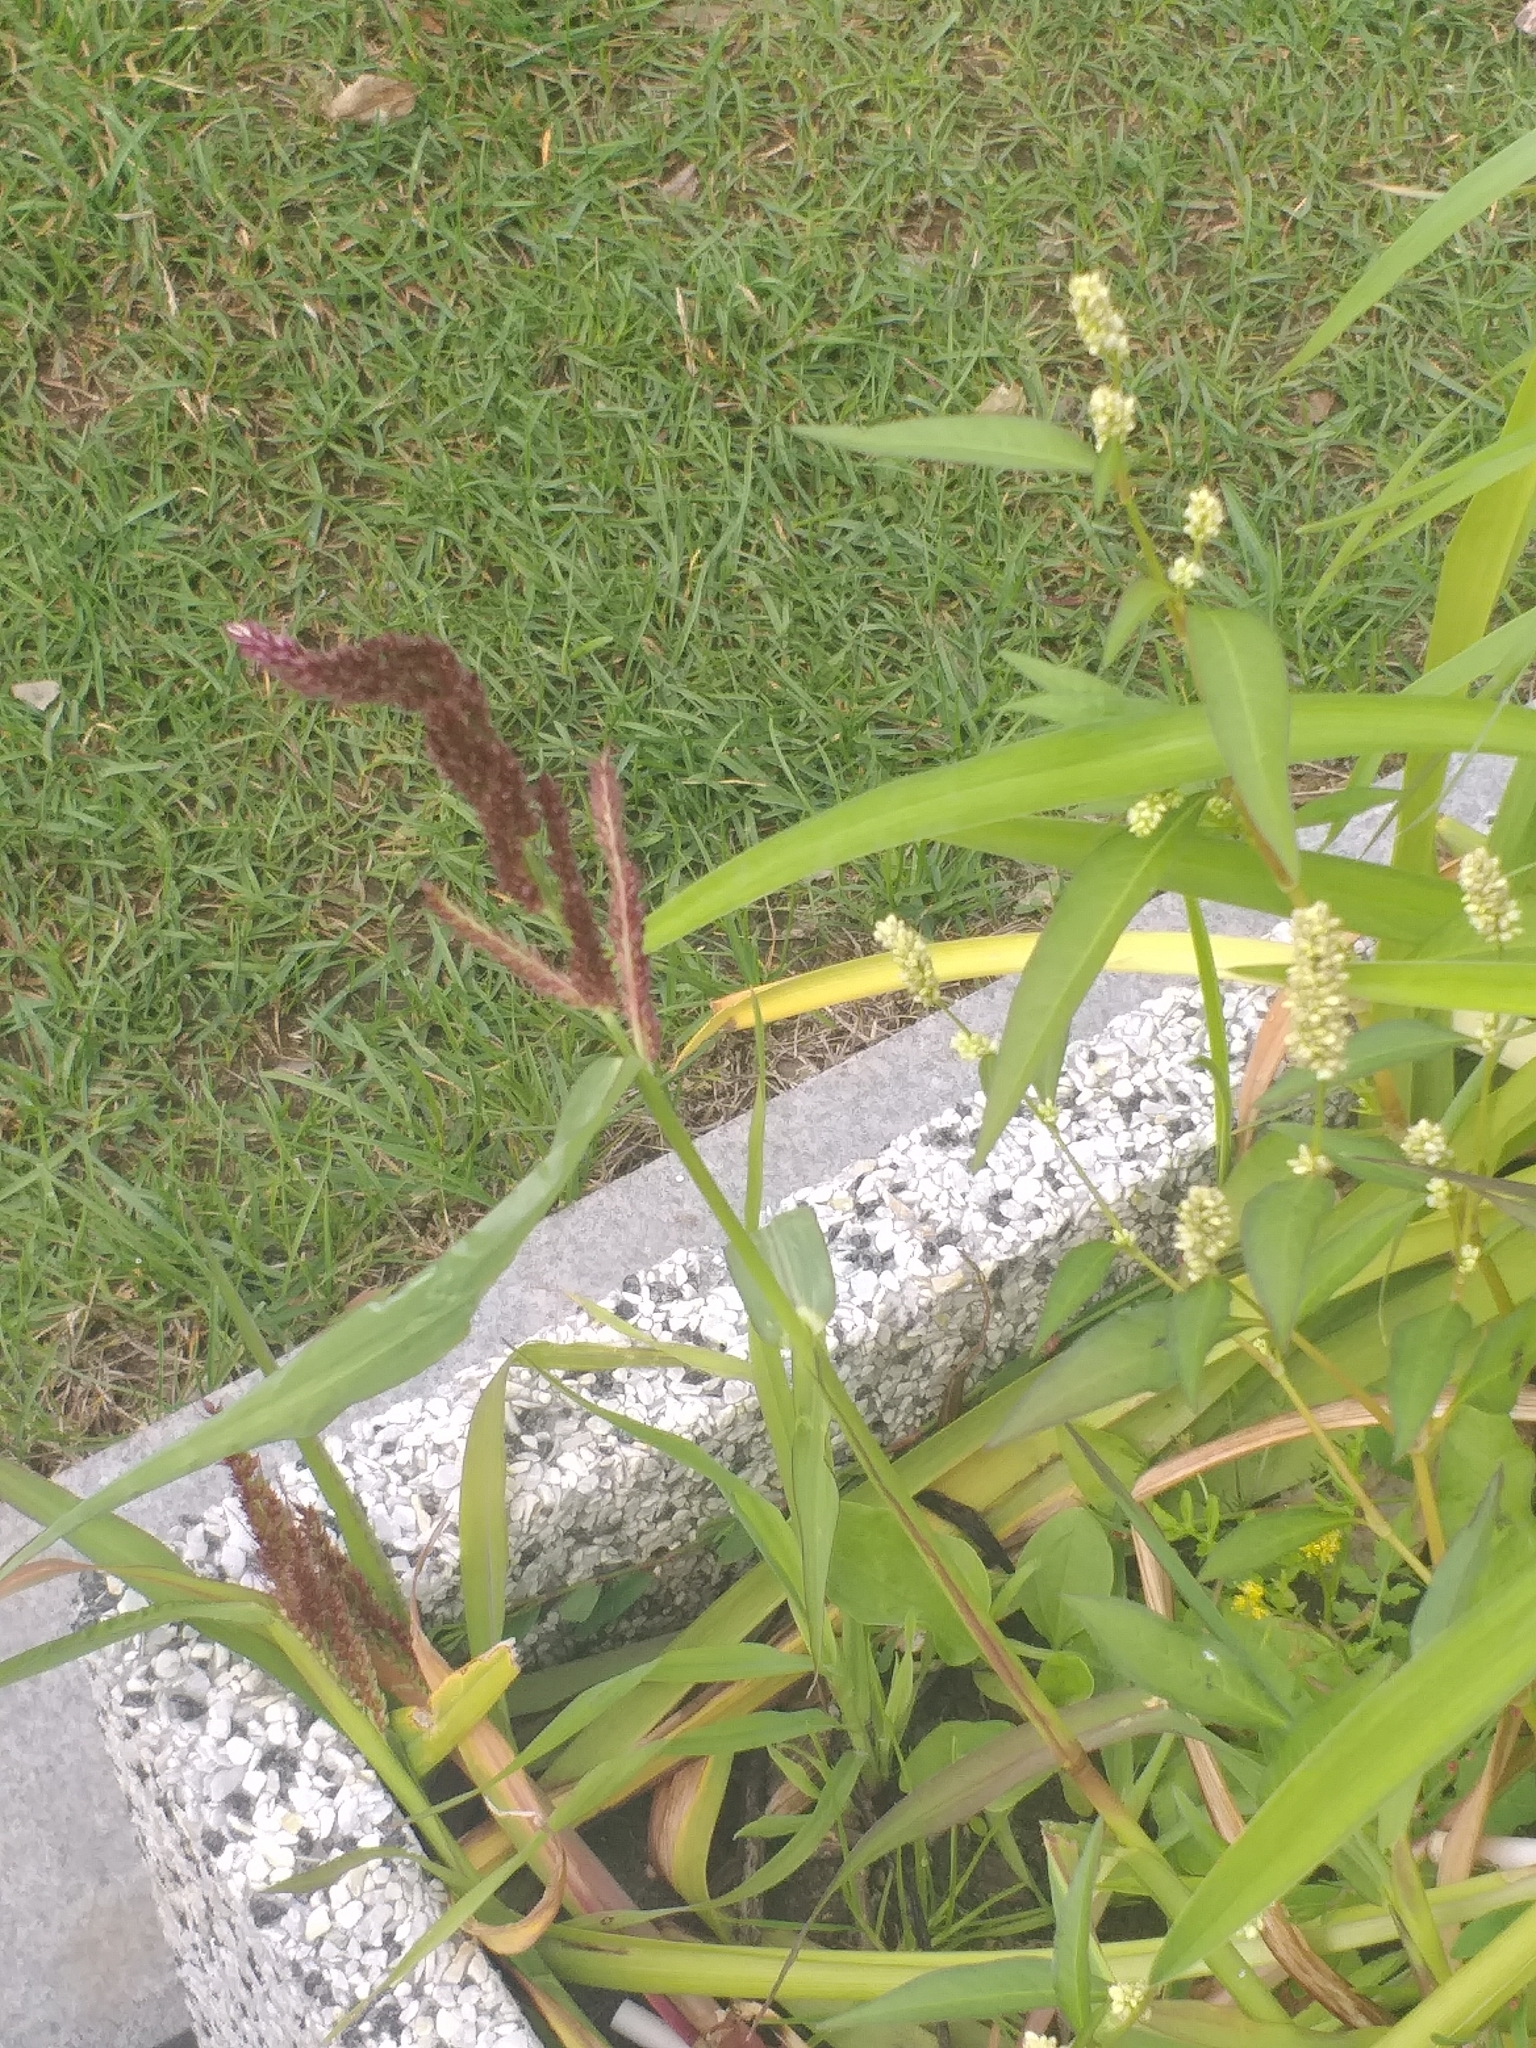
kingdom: Plantae
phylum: Tracheophyta
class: Liliopsida
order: Poales
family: Poaceae
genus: Echinochloa
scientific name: Echinochloa crus-galli
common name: Cockspur
